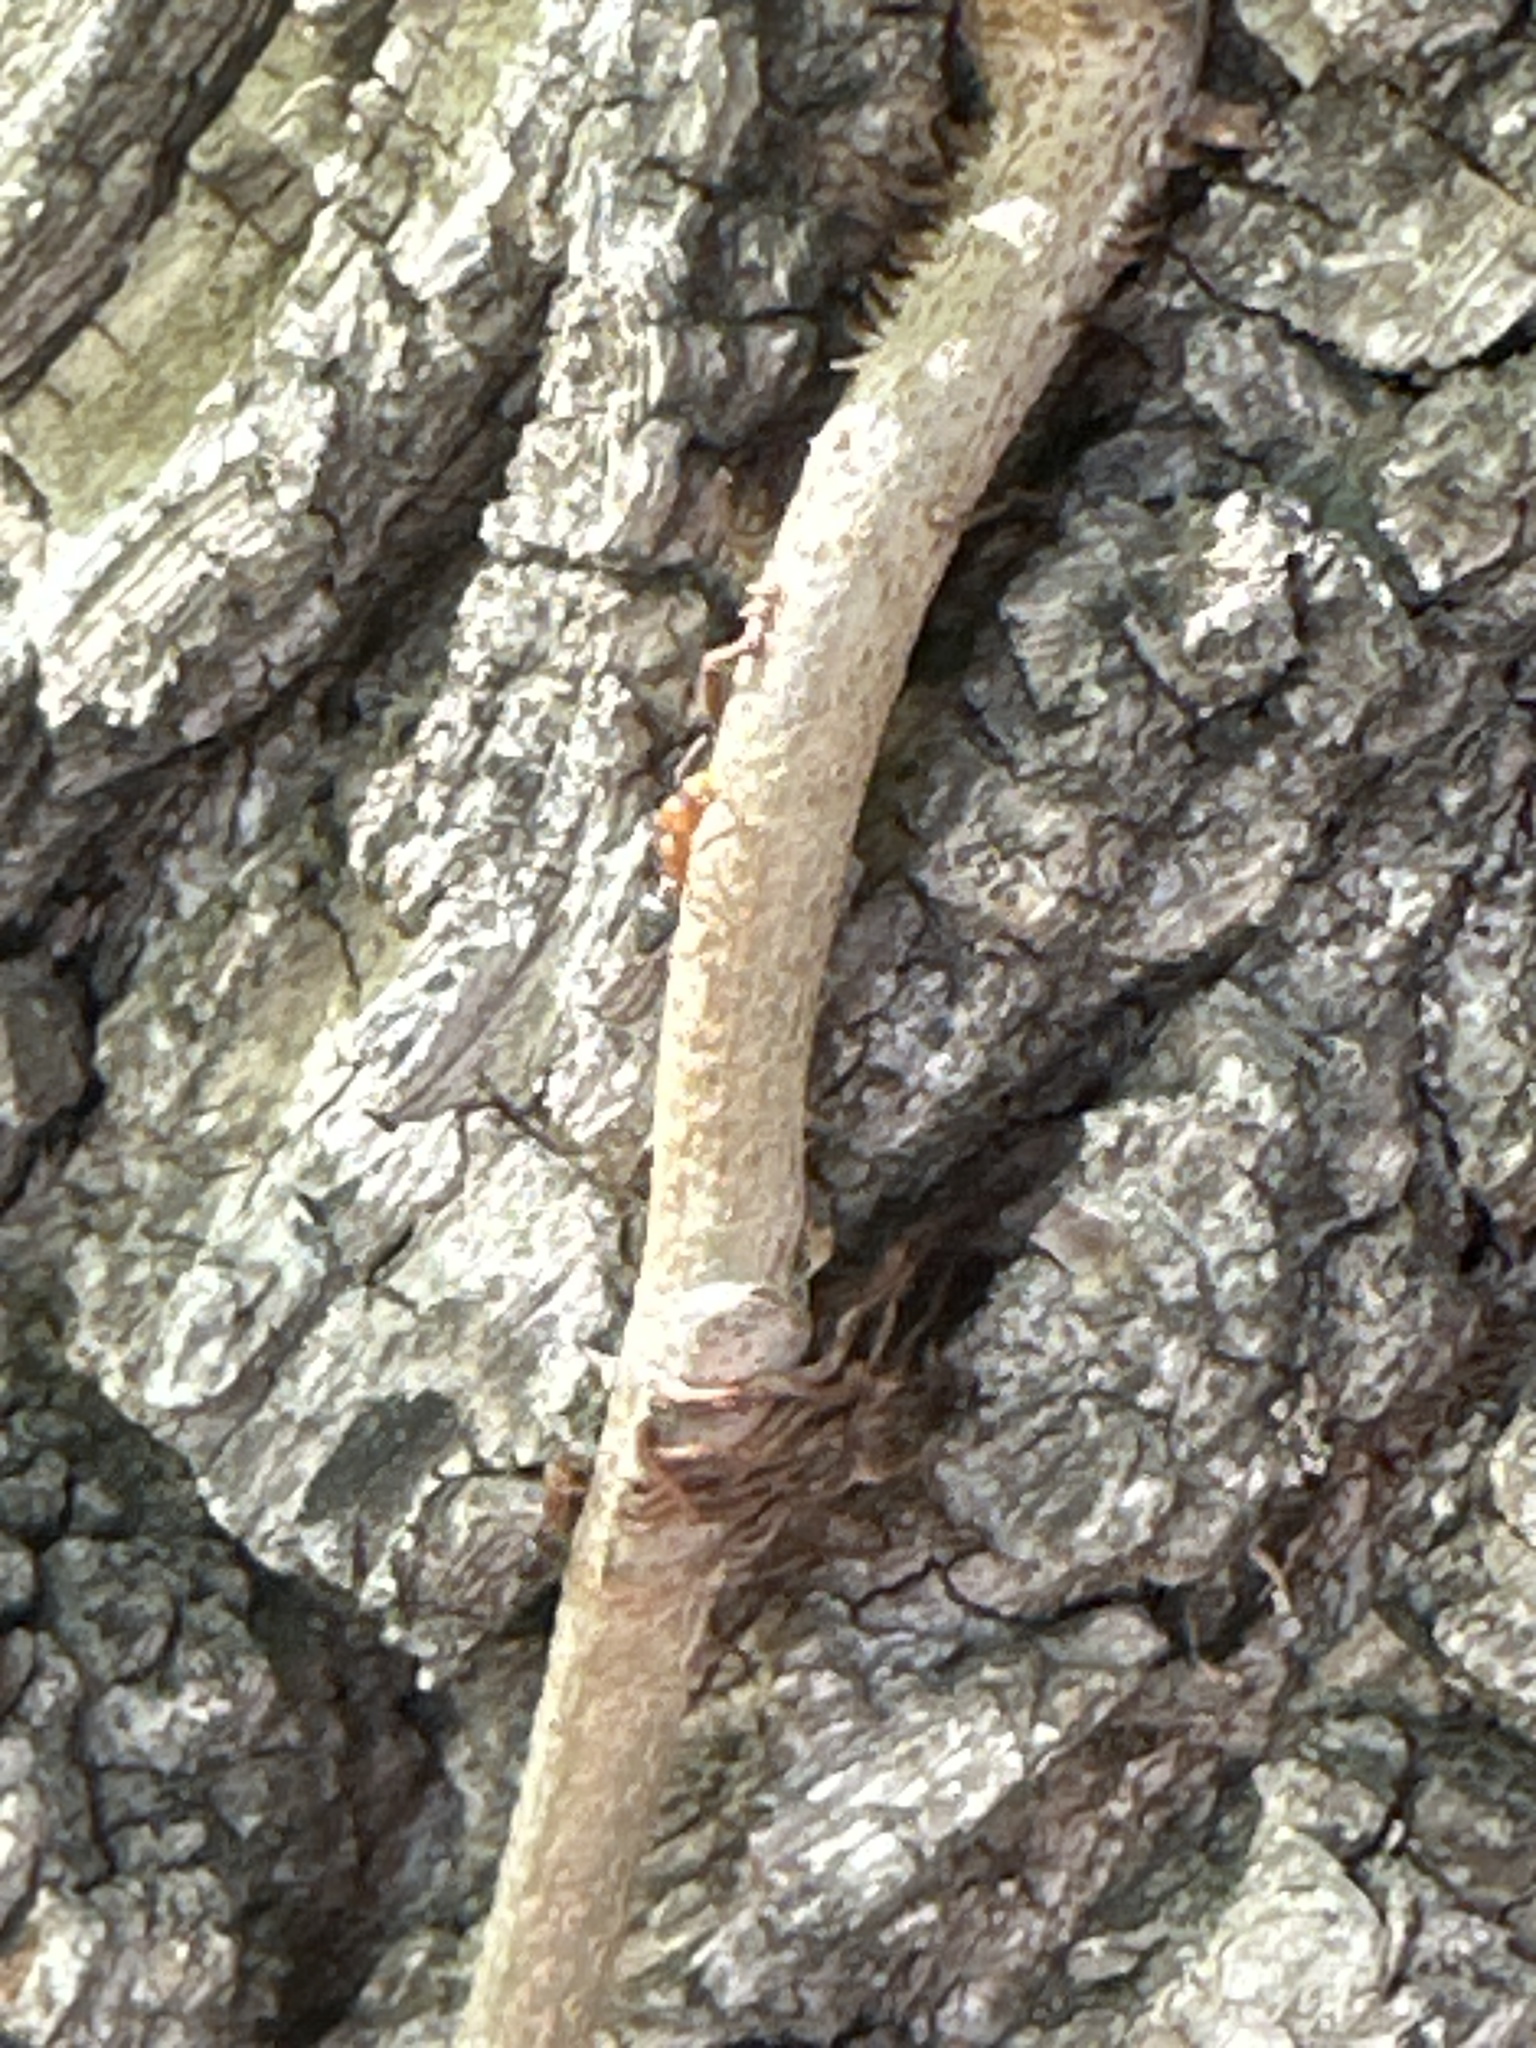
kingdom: Animalia
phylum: Arthropoda
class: Insecta
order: Hymenoptera
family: Formicidae
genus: Crematogaster
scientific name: Crematogaster laeviuscula
